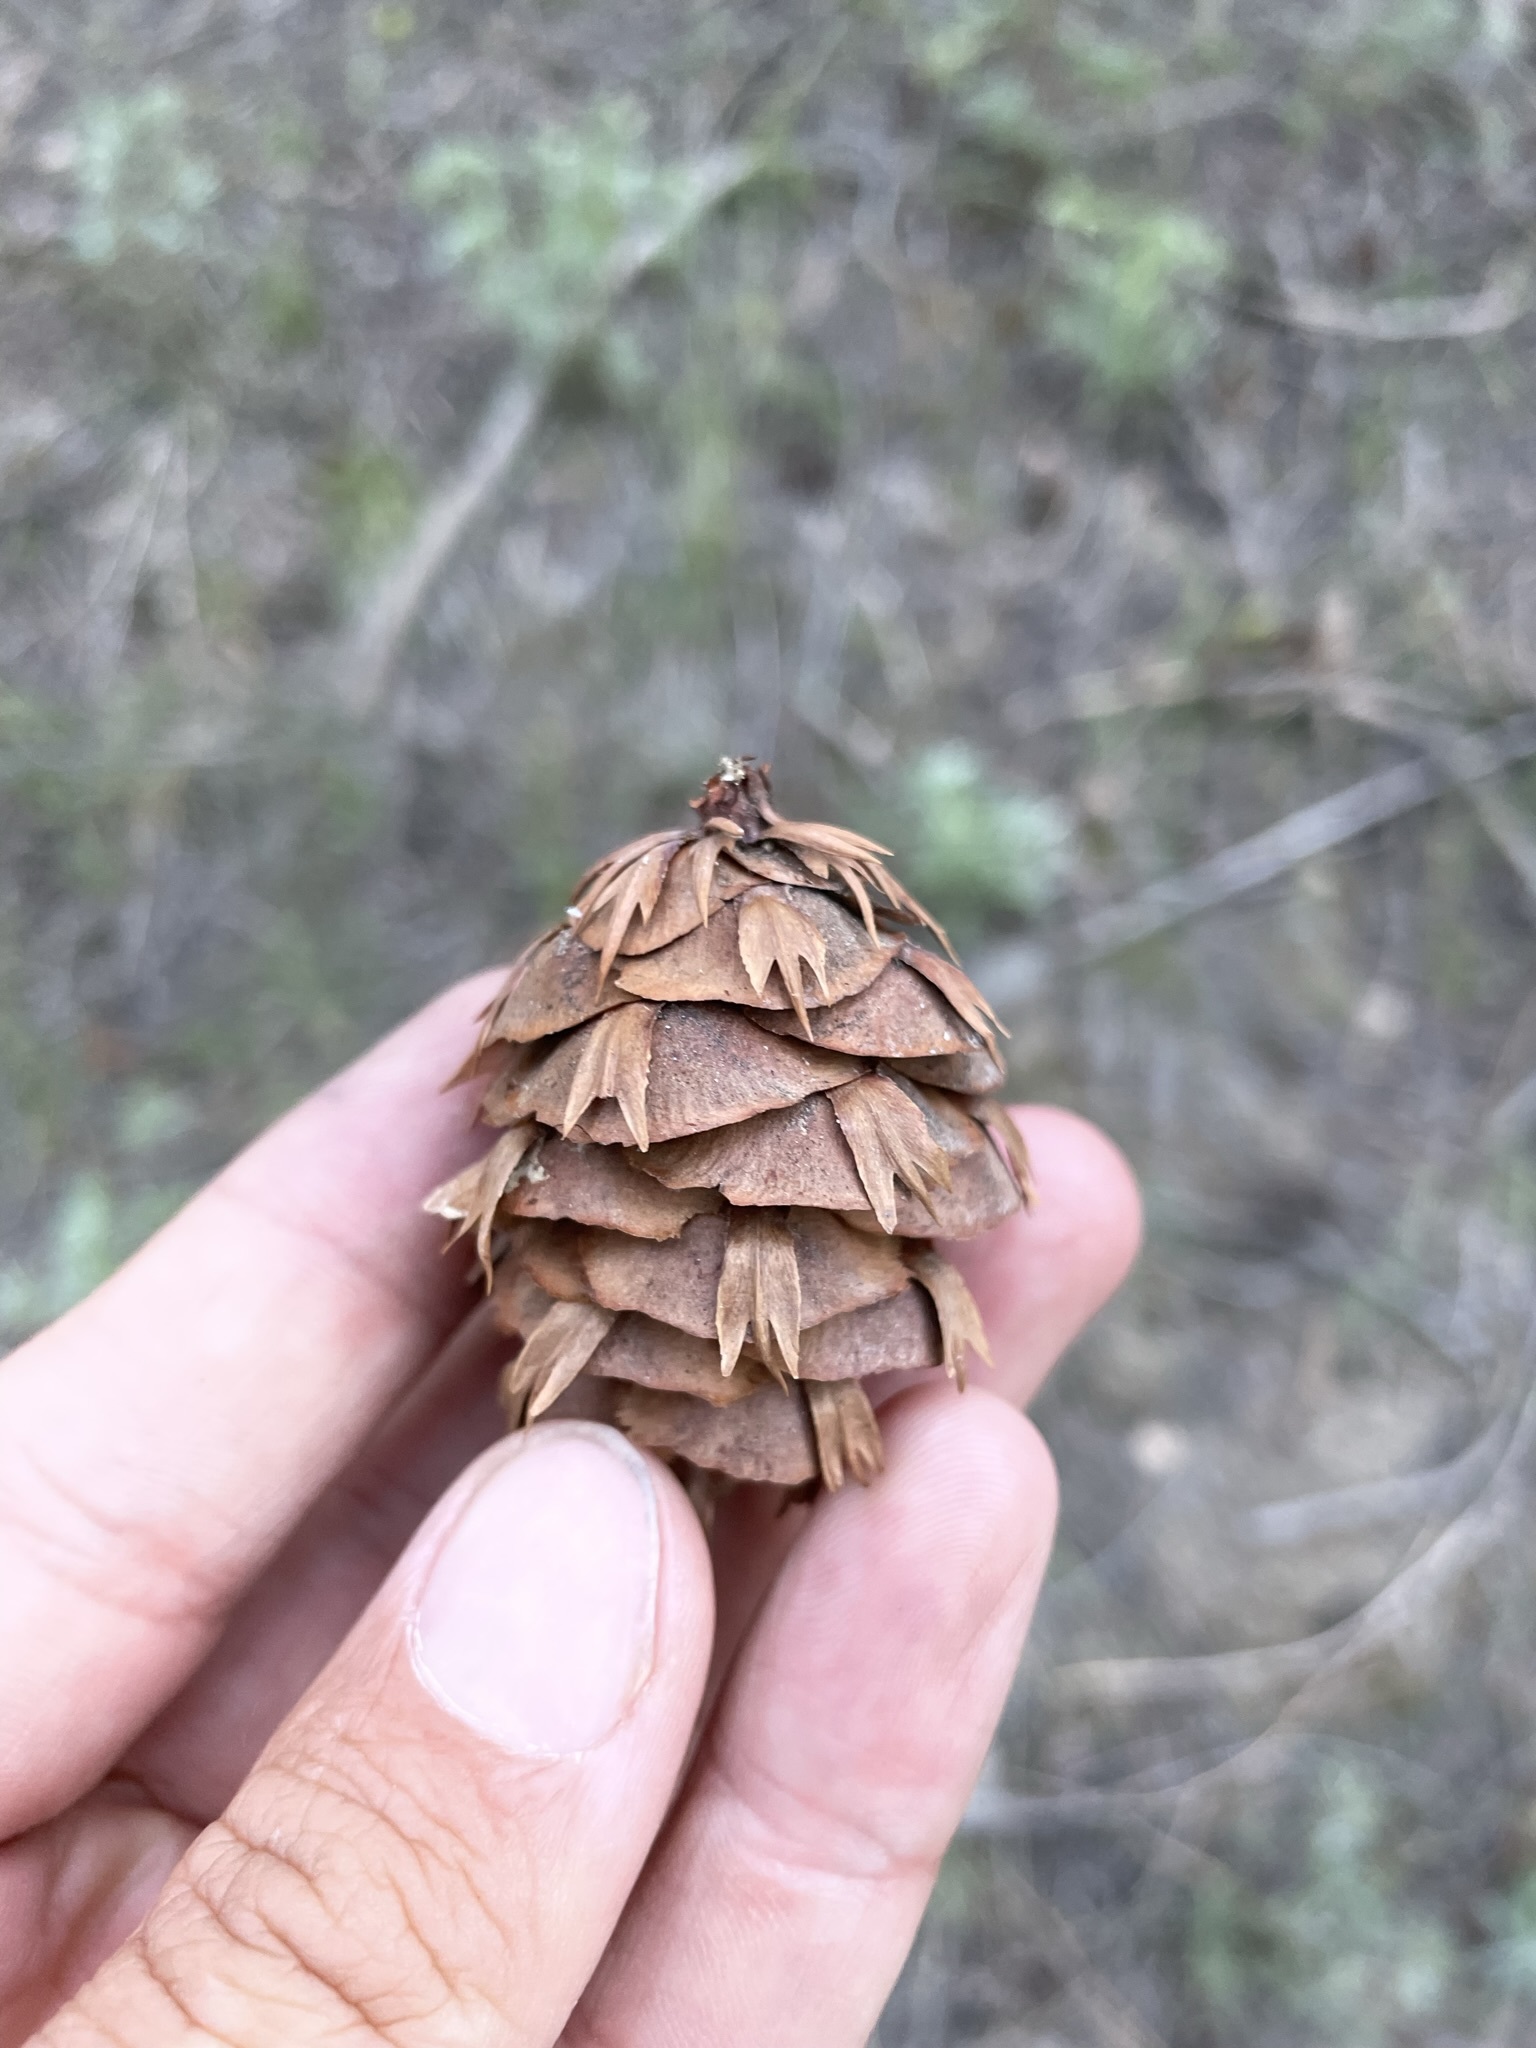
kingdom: Plantae
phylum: Tracheophyta
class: Pinopsida
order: Pinales
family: Pinaceae
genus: Pseudotsuga
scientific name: Pseudotsuga menziesii
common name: Douglas fir
